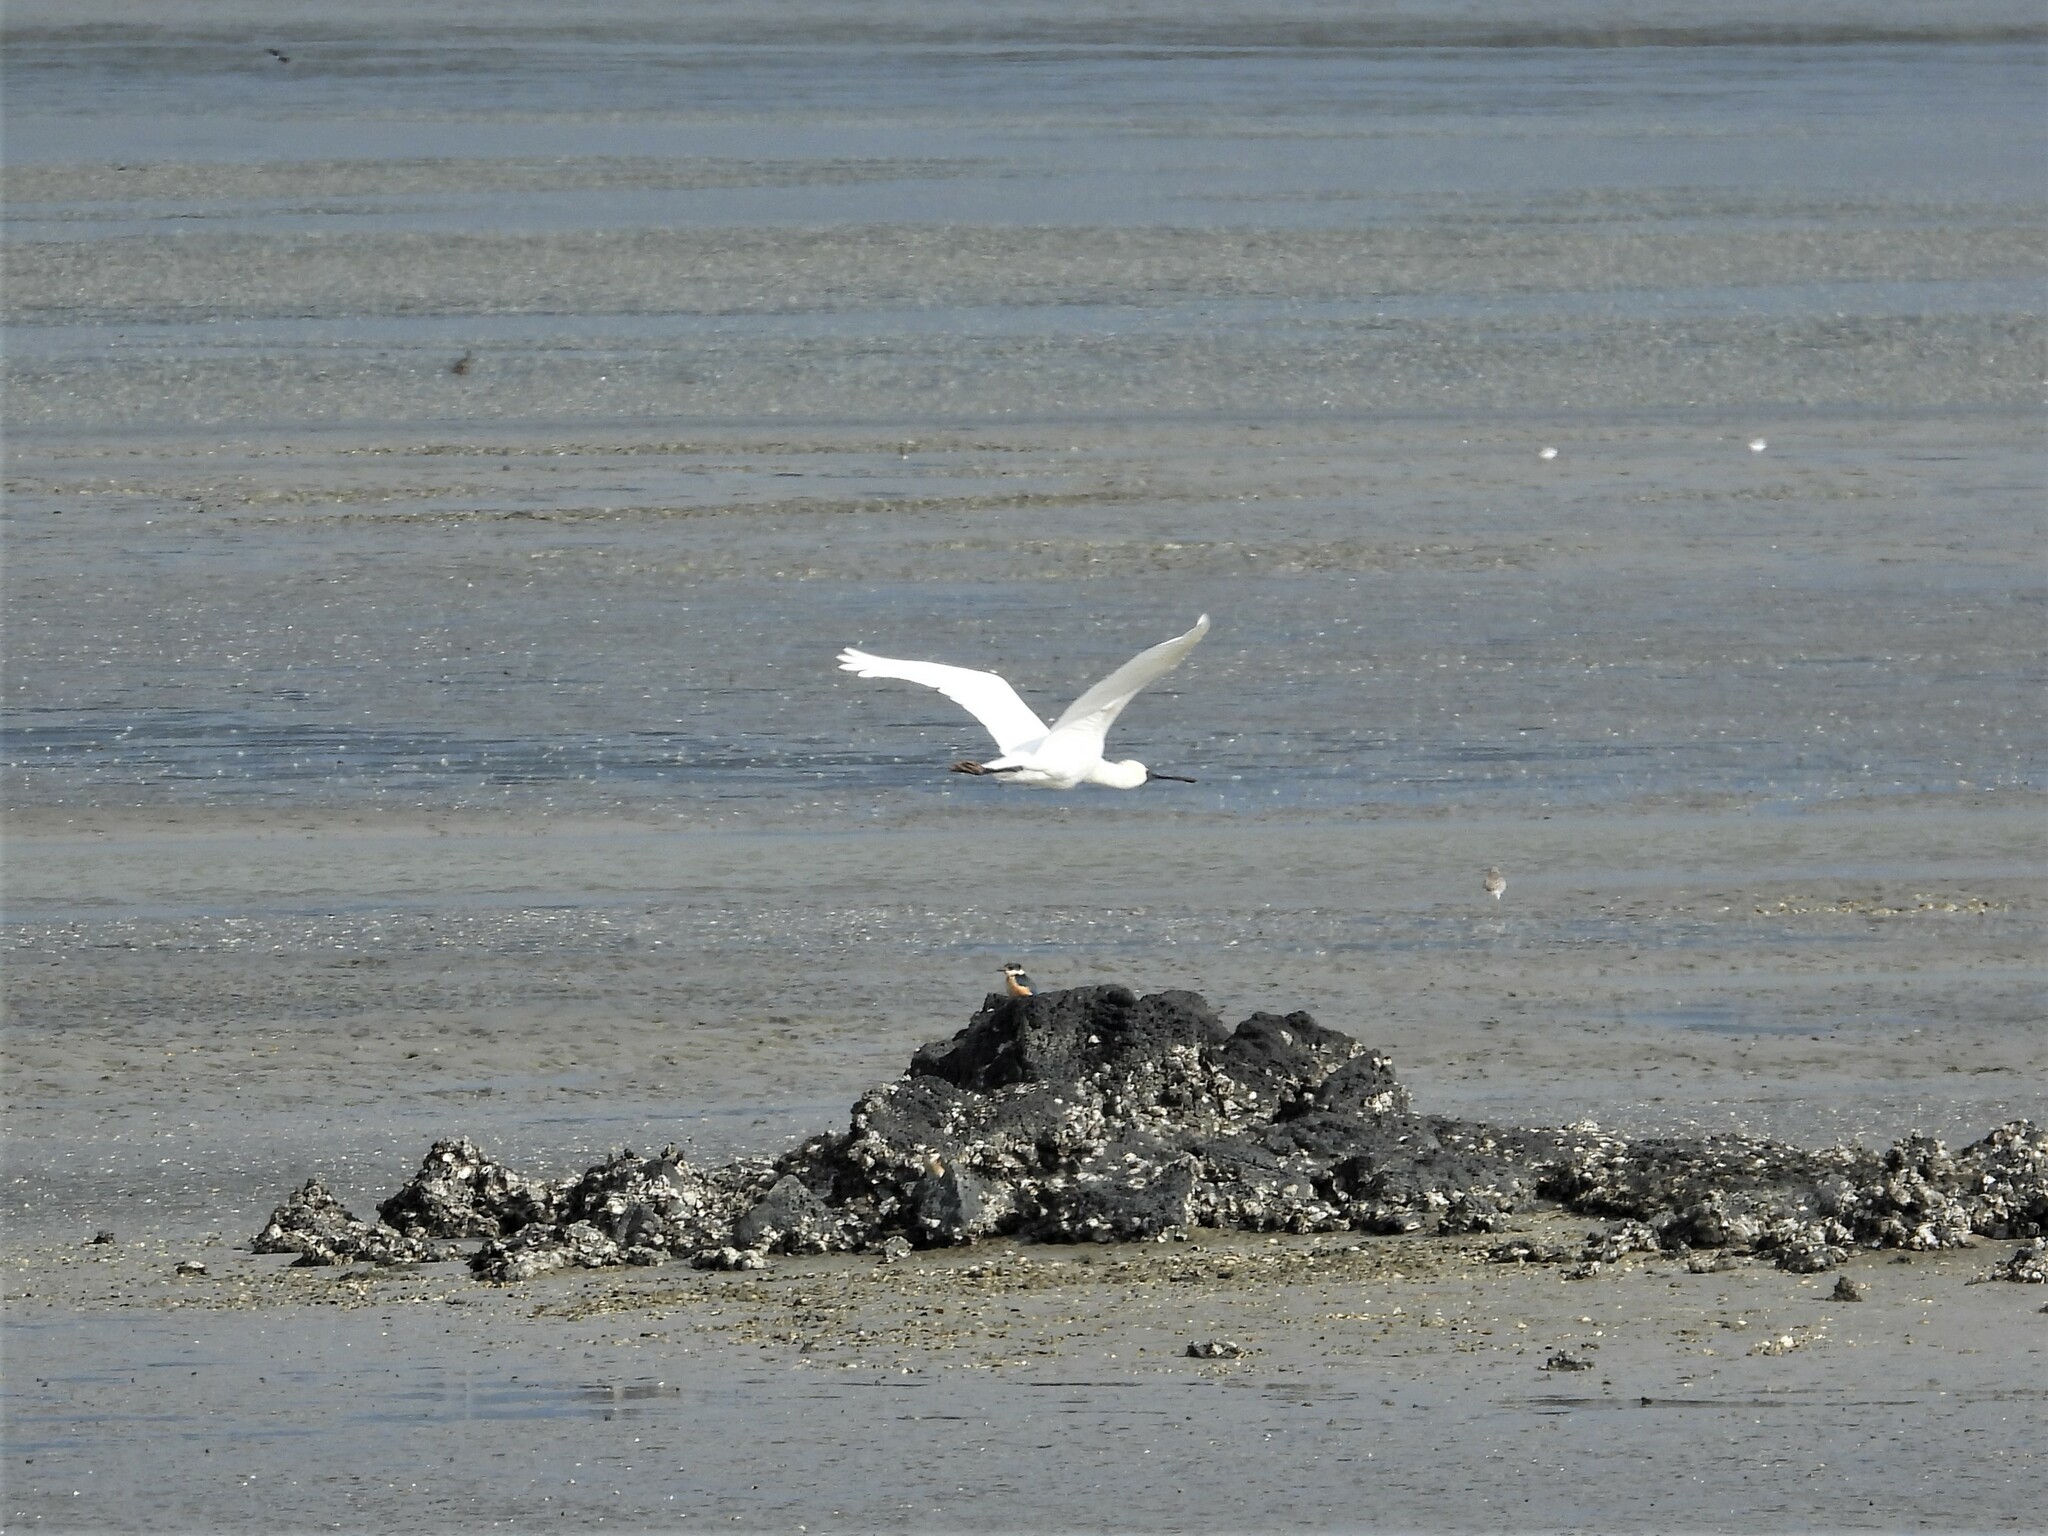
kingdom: Animalia
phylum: Chordata
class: Aves
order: Pelecaniformes
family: Threskiornithidae
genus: Platalea
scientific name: Platalea regia
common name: Royal spoonbill
